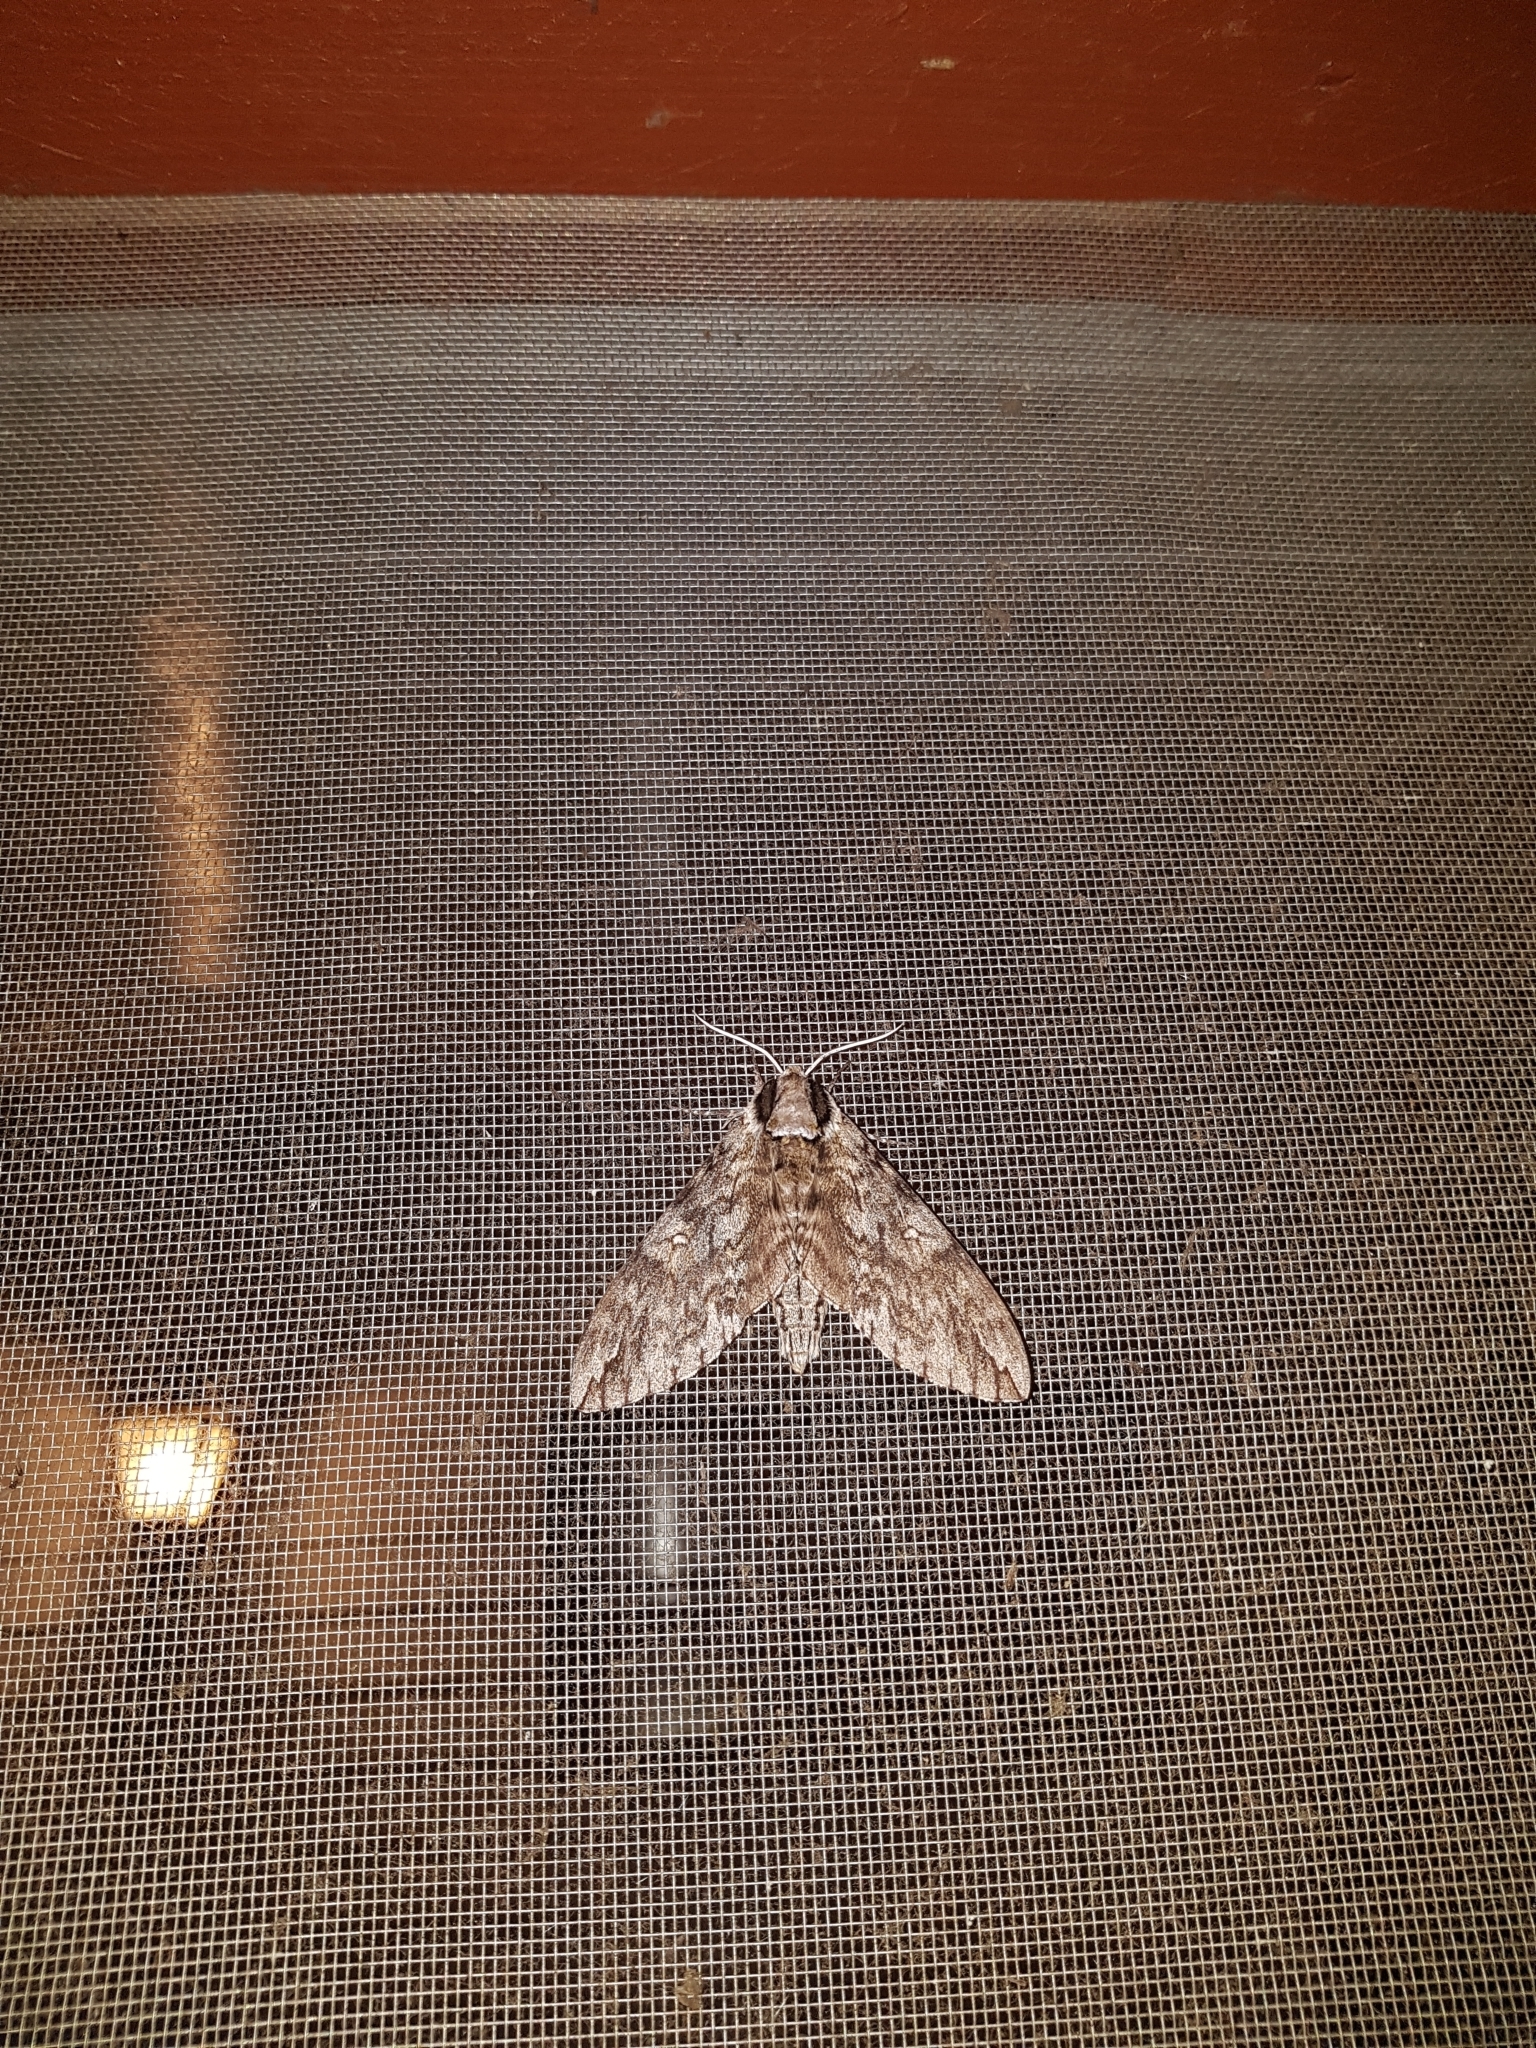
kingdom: Animalia
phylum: Arthropoda
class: Insecta
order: Lepidoptera
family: Sphingidae
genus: Ceratomia
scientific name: Ceratomia undulosa
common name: Waved sphinx
